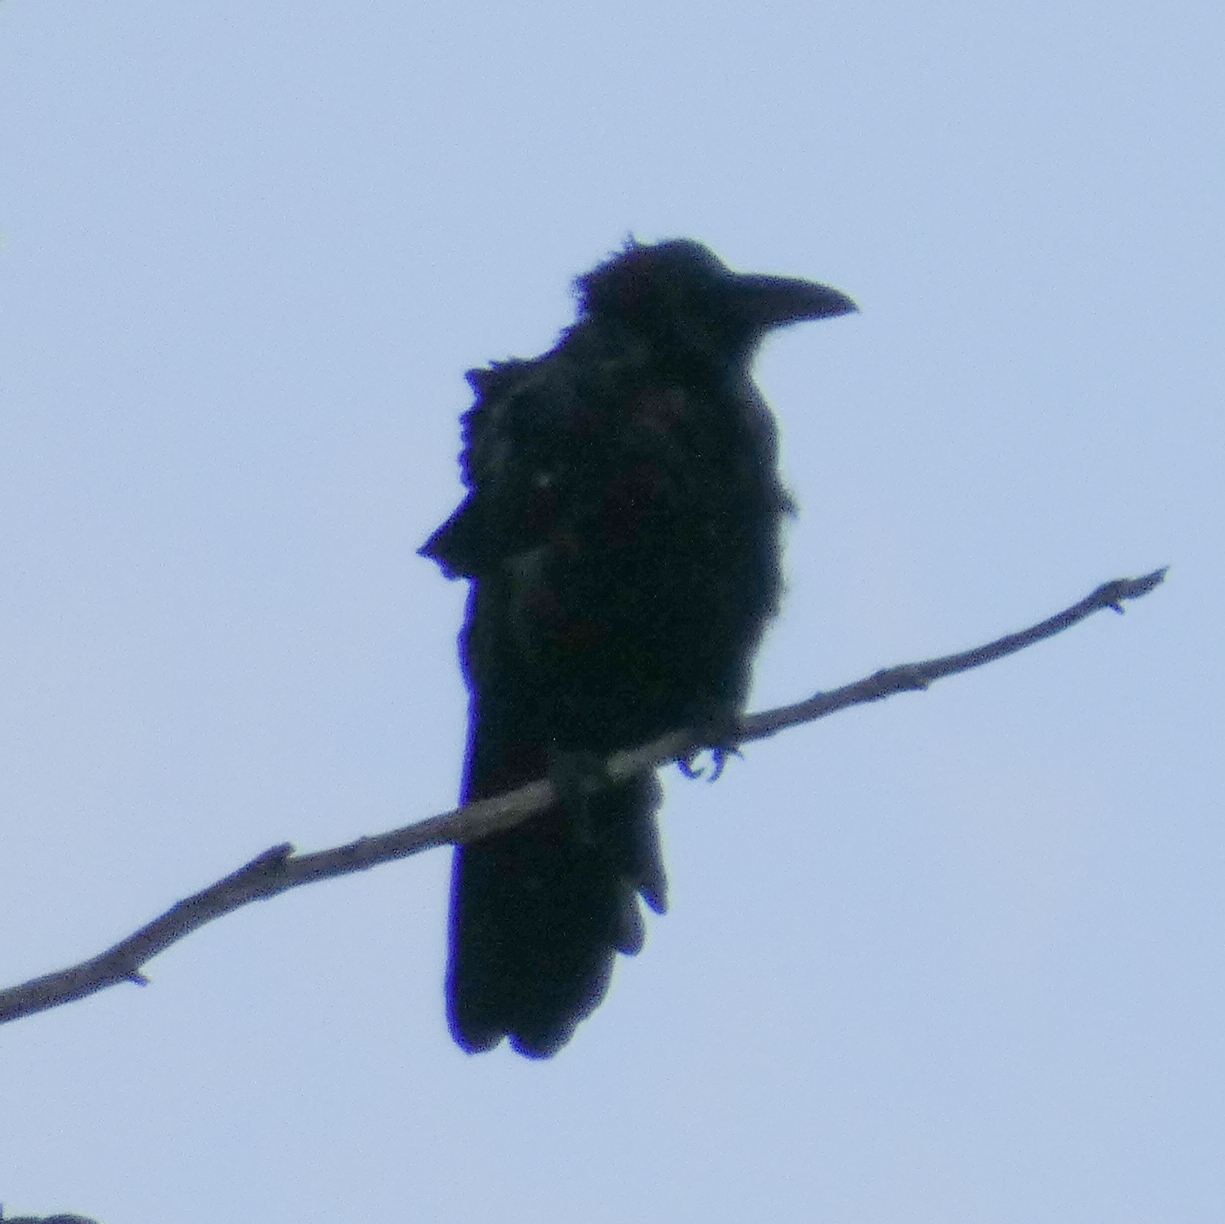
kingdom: Animalia
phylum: Chordata
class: Aves
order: Passeriformes
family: Corvidae
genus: Corvus
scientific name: Corvus corax
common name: Common raven
